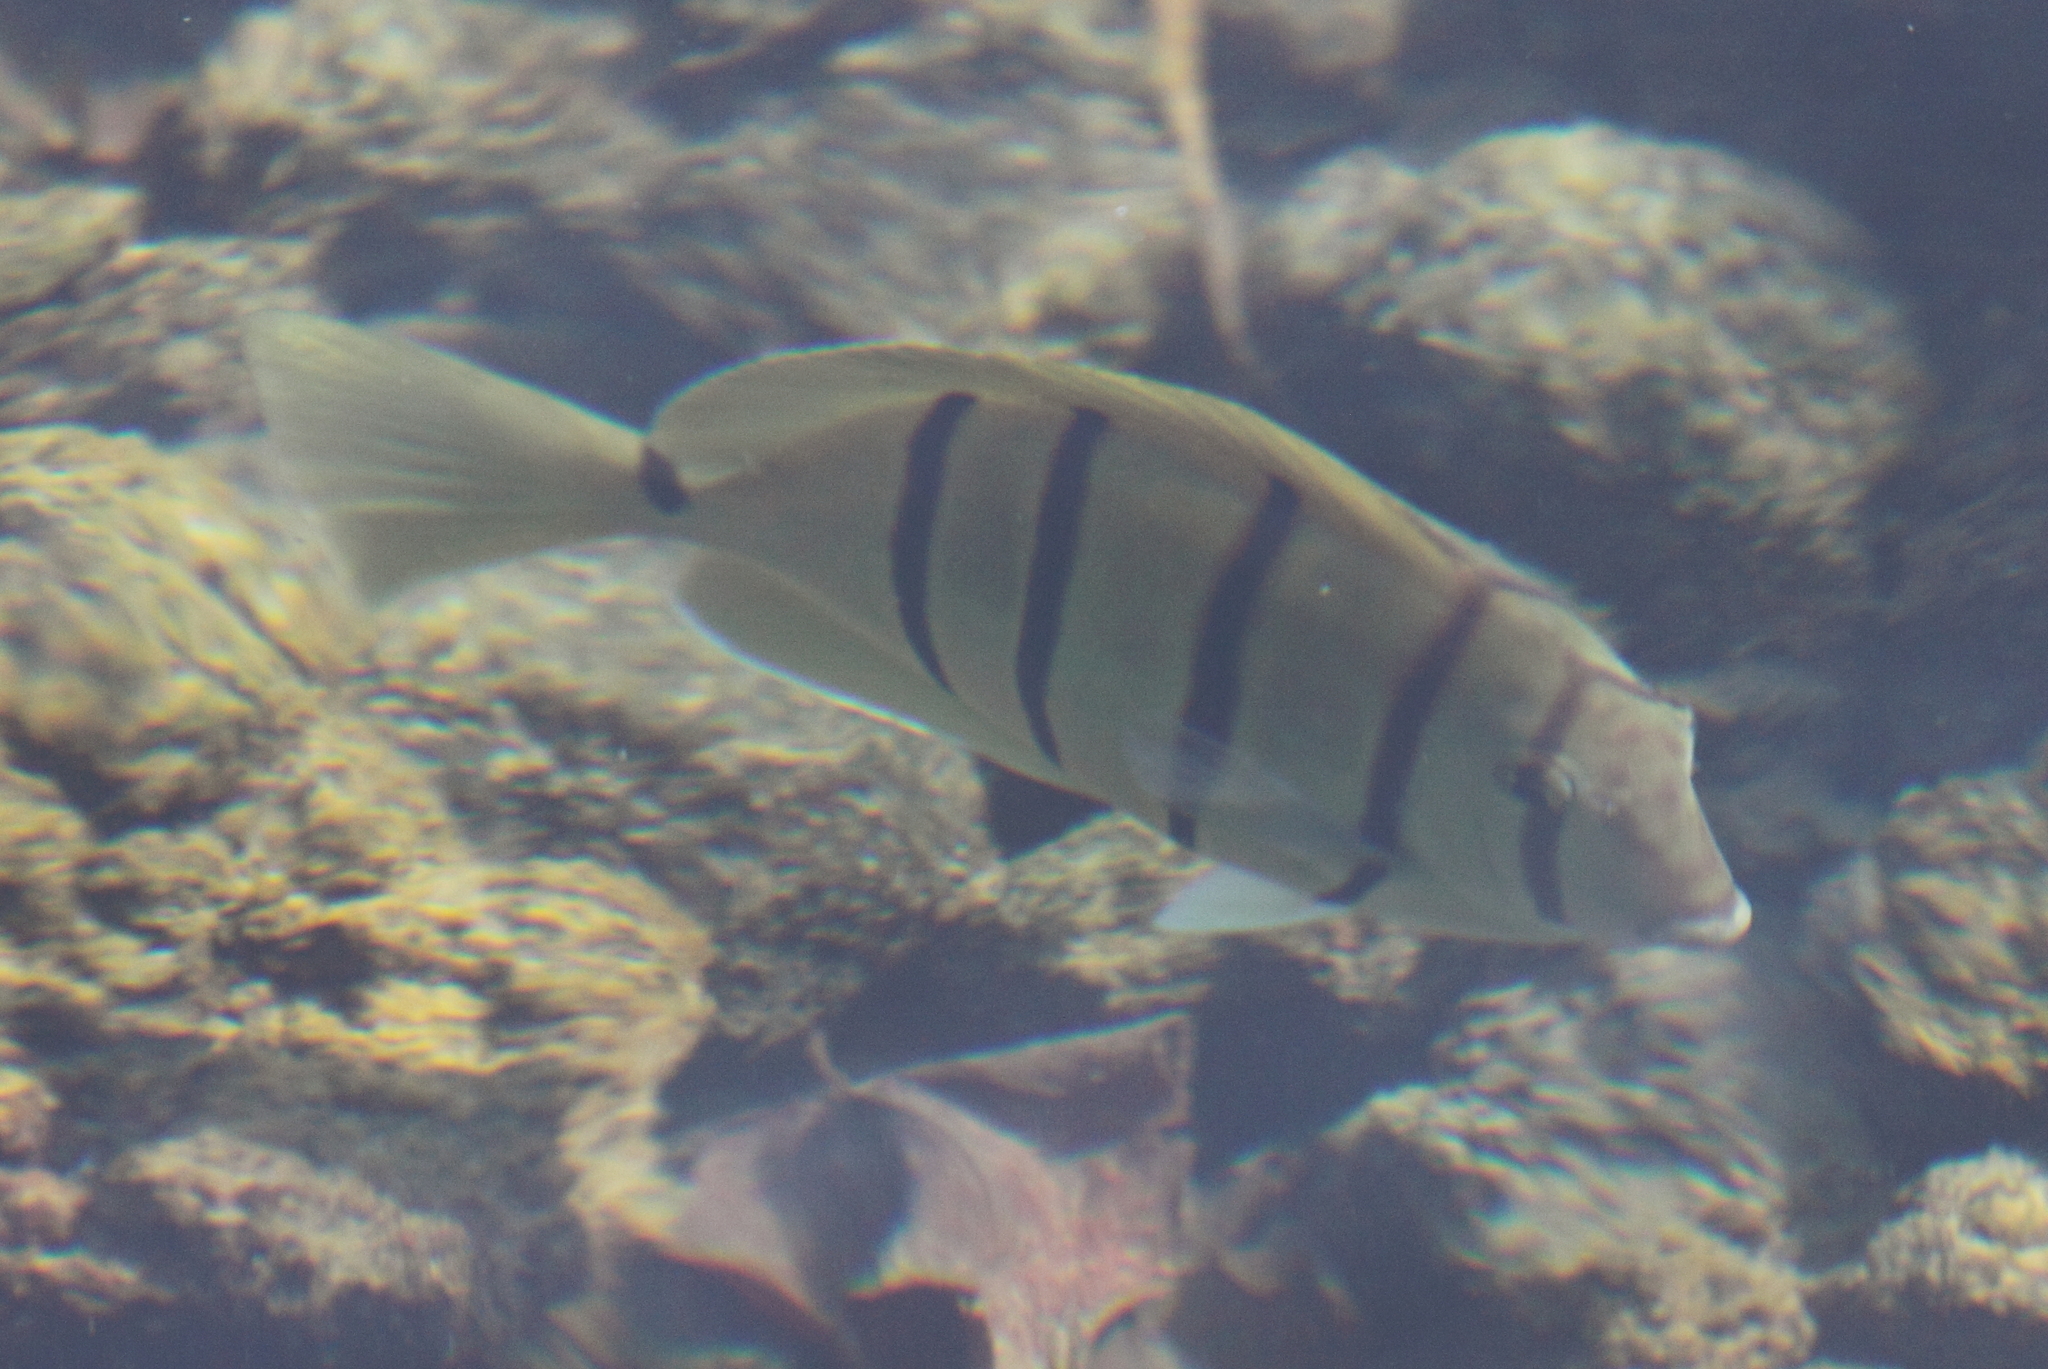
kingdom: Animalia
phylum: Chordata
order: Perciformes
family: Acanthuridae
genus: Acanthurus
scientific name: Acanthurus triostegus
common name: Convict surgeonfish
